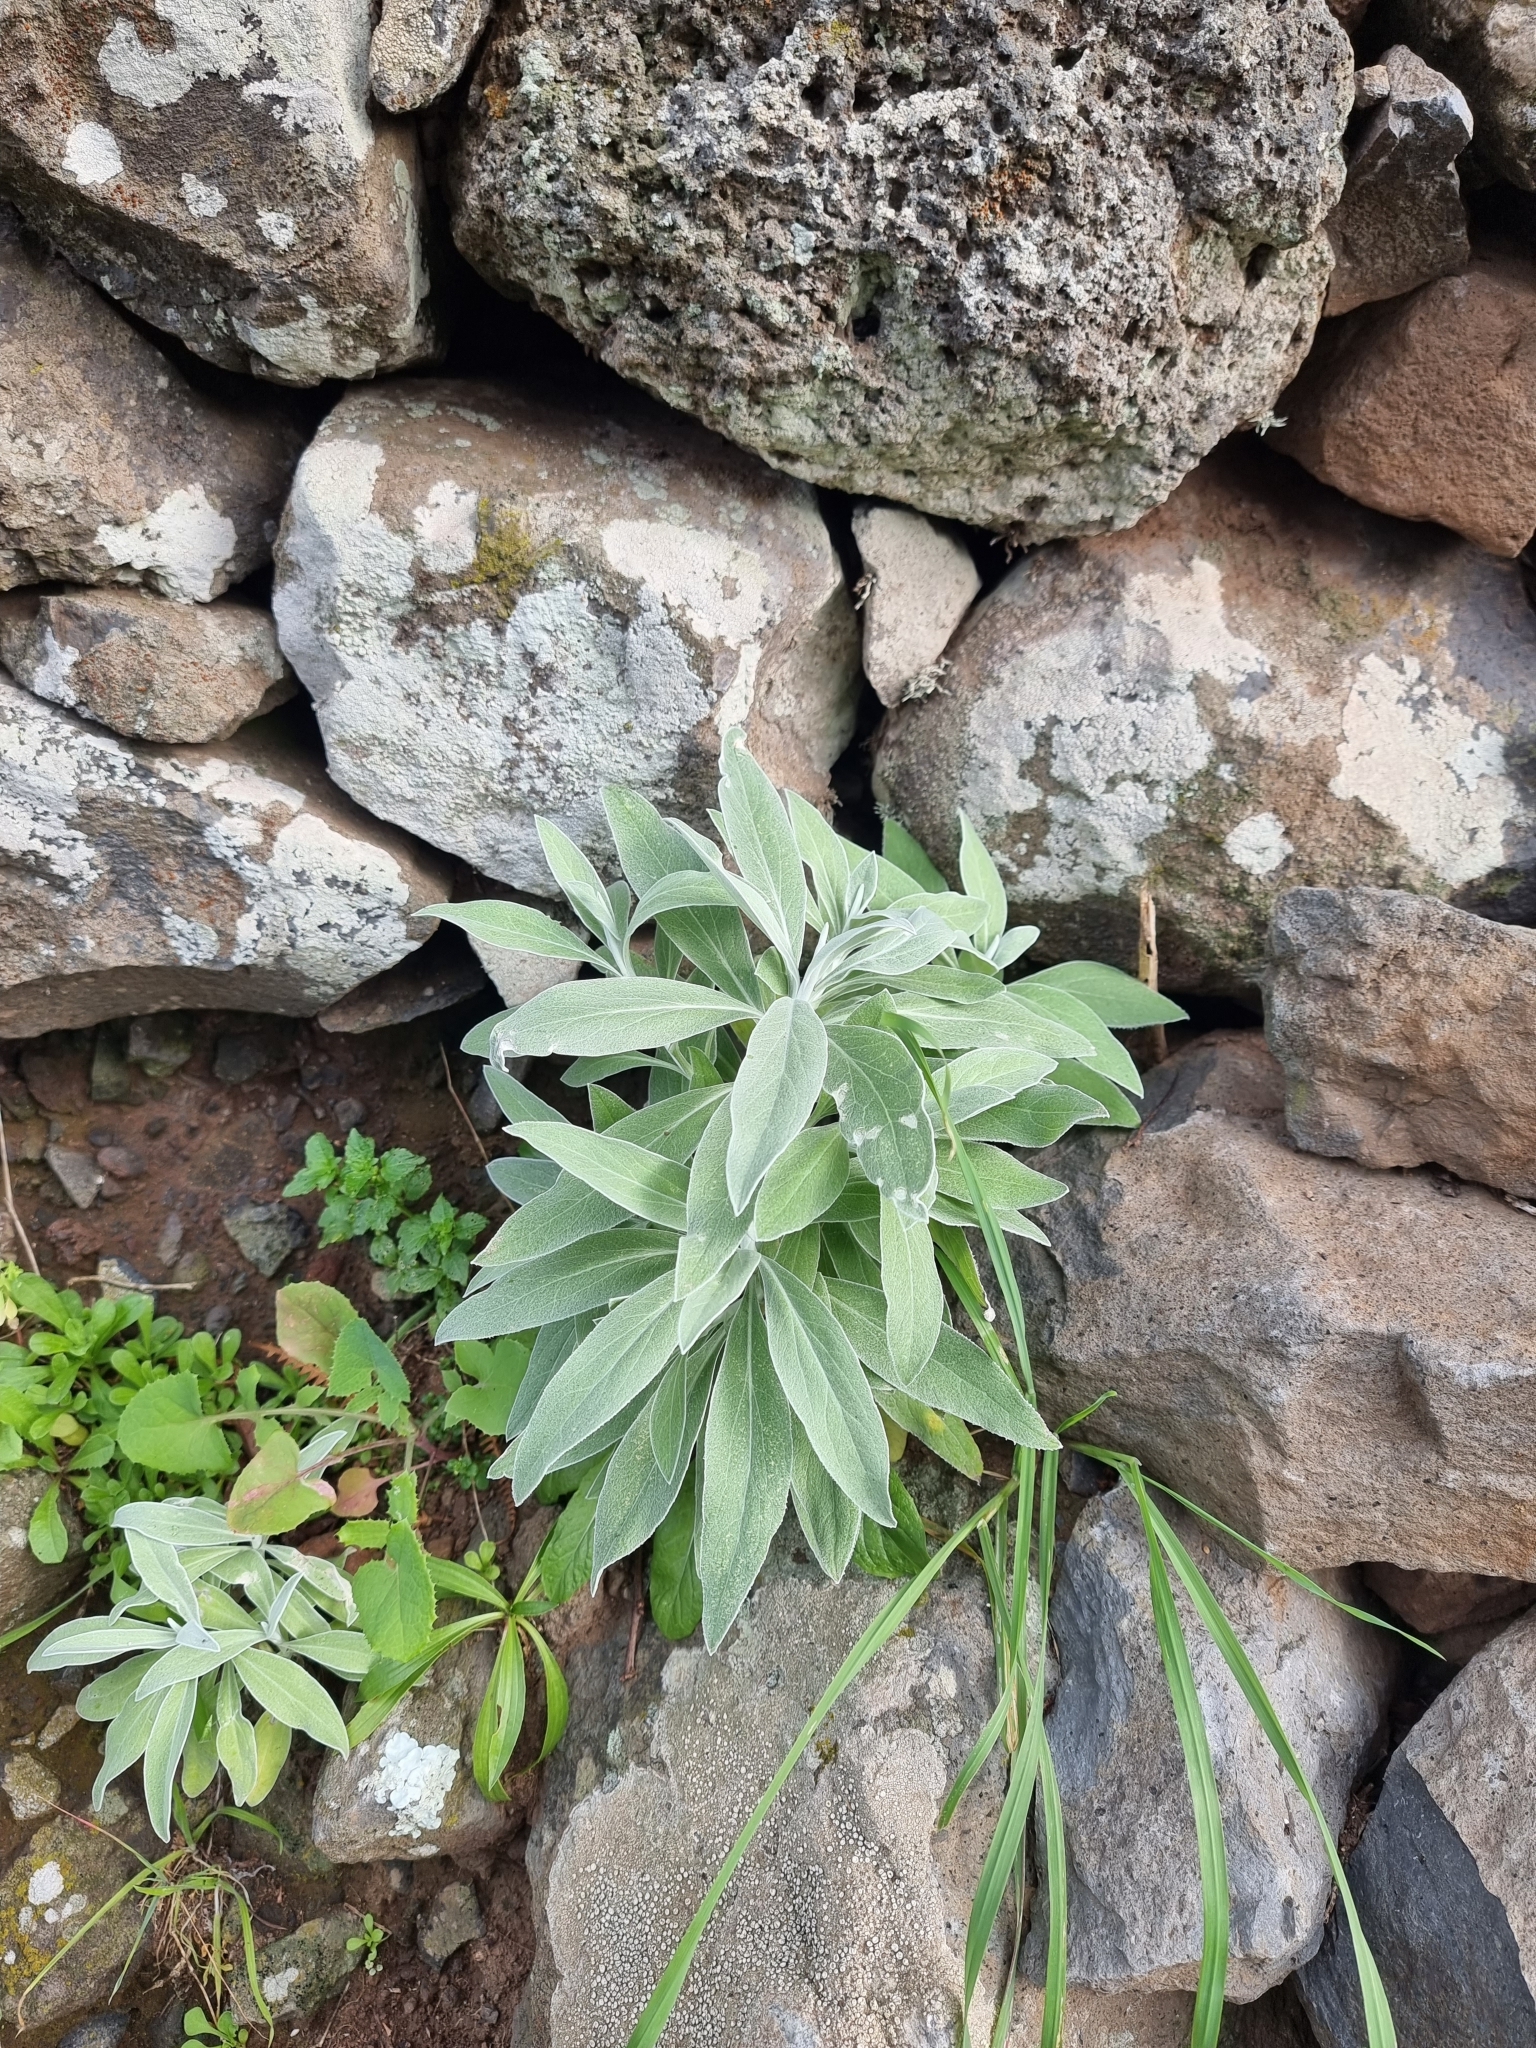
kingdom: Plantae
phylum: Tracheophyta
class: Magnoliopsida
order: Asterales
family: Asteraceae
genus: Helichrysum
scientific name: Helichrysum melaleucum
